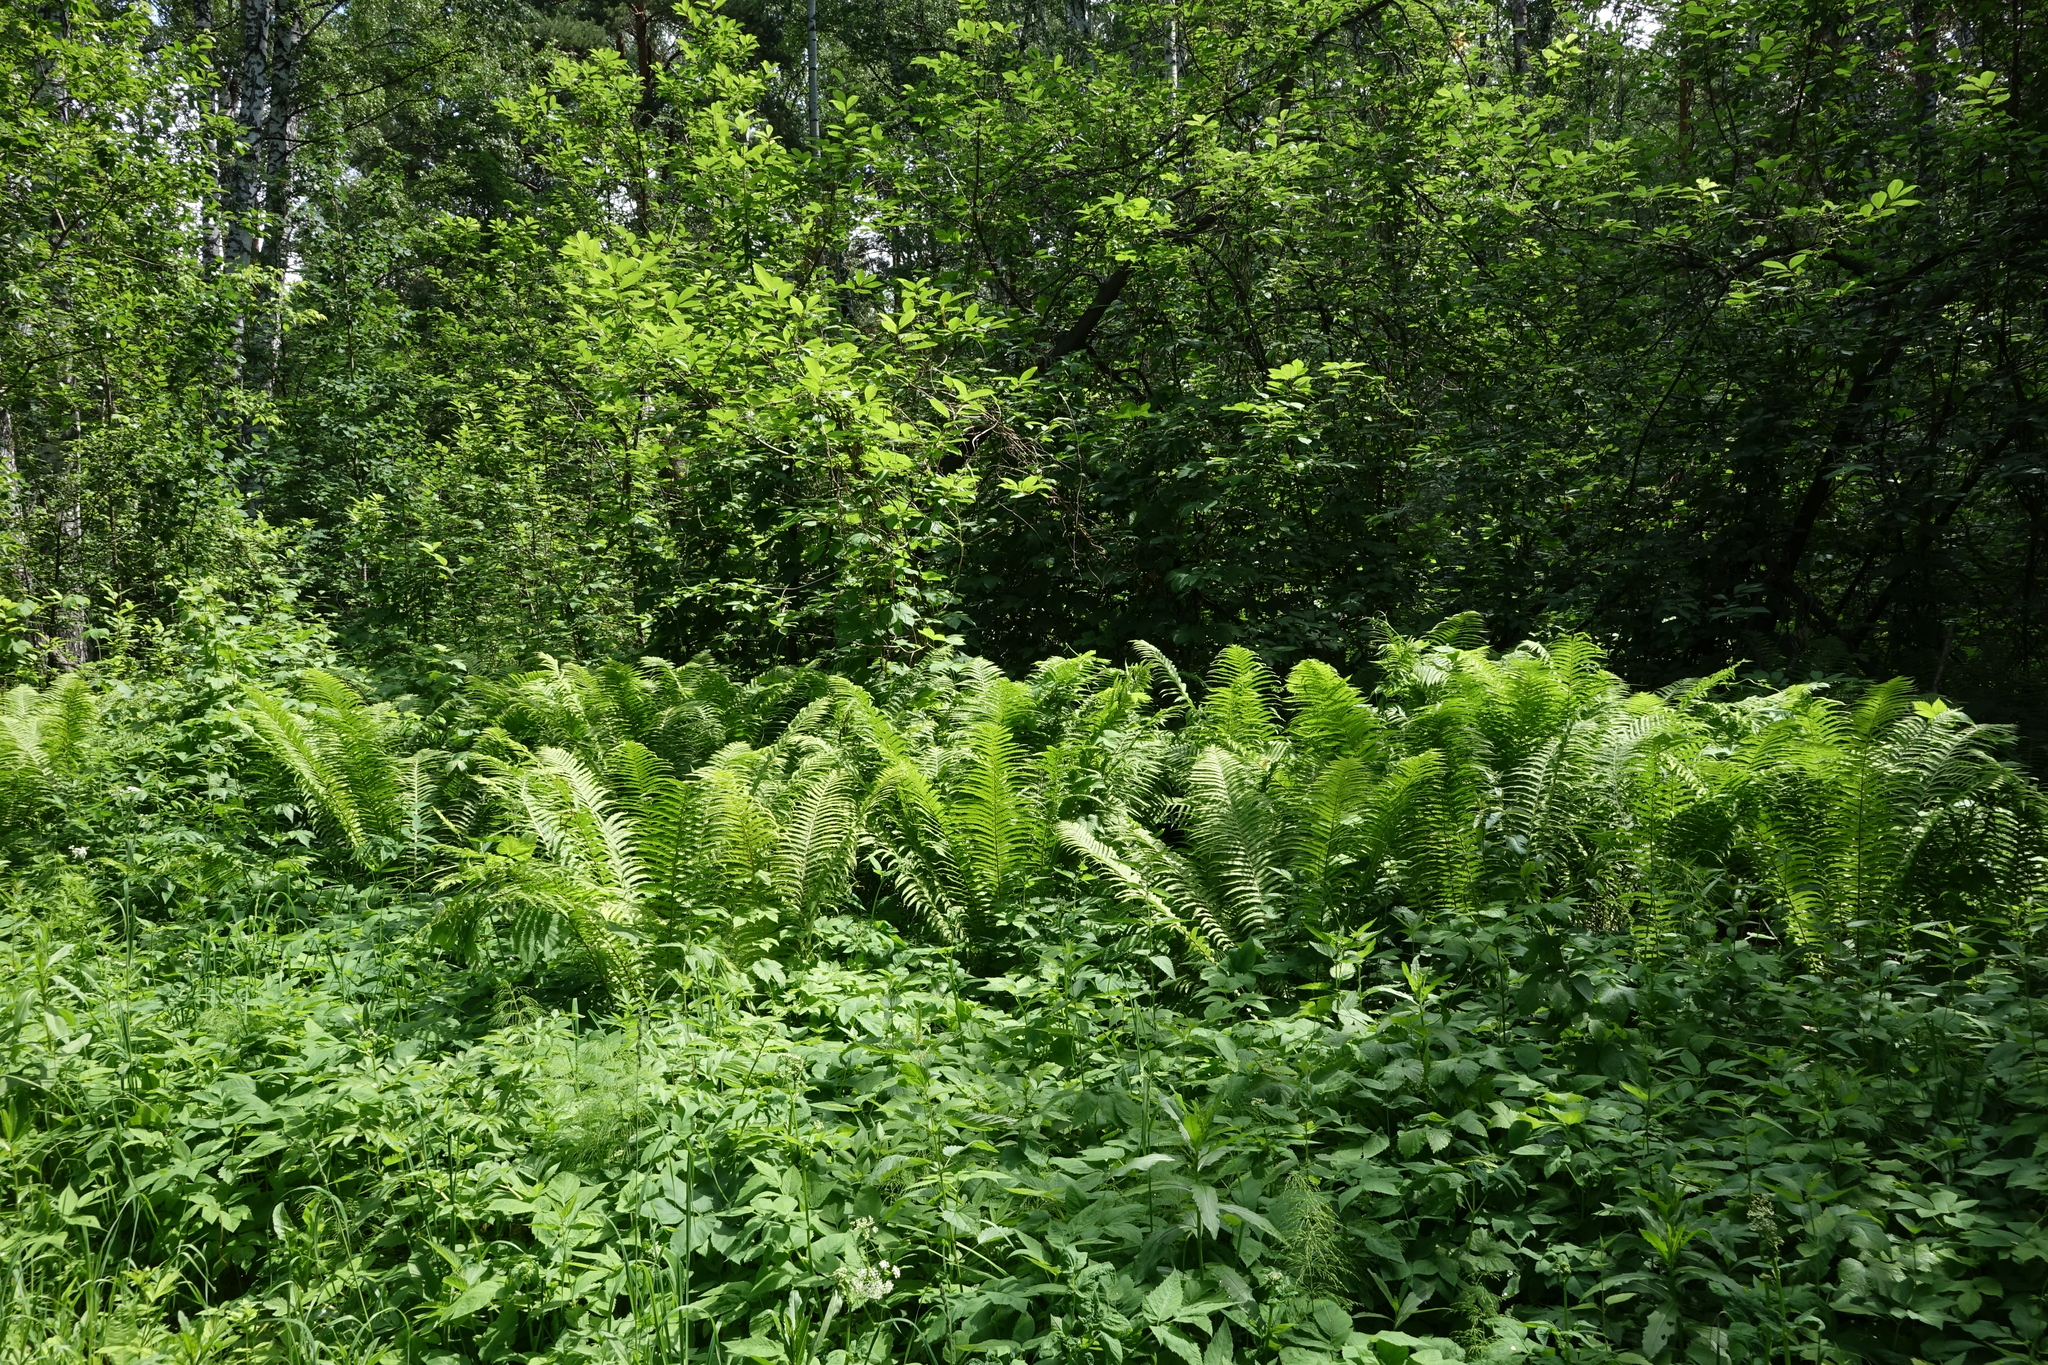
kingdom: Plantae
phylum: Tracheophyta
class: Polypodiopsida
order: Polypodiales
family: Onocleaceae
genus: Matteuccia
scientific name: Matteuccia struthiopteris
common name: Ostrich fern
